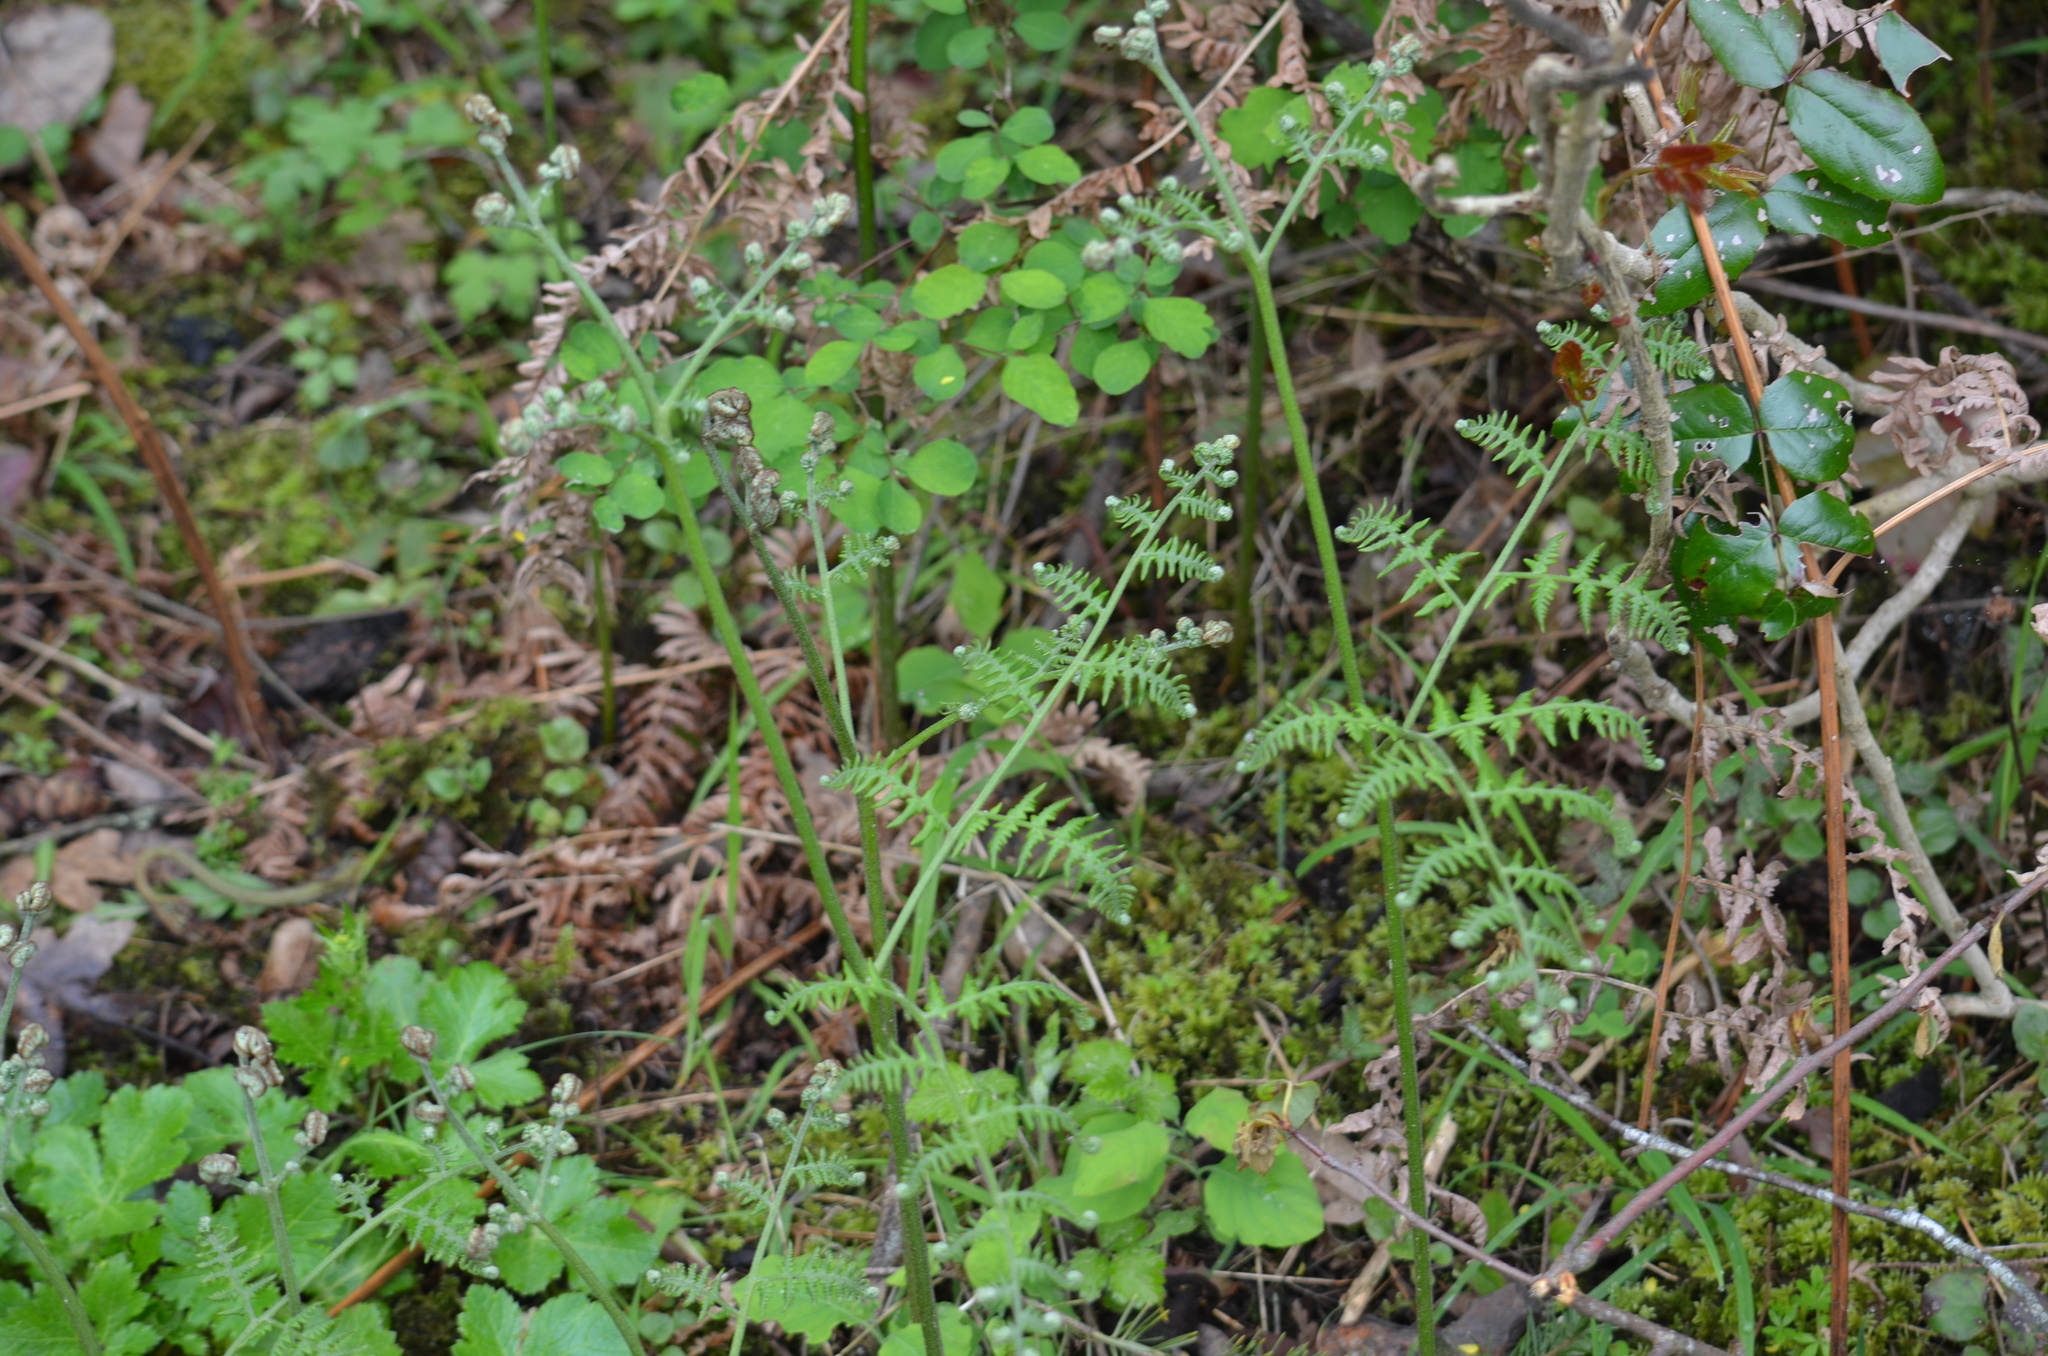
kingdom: Plantae
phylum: Tracheophyta
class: Polypodiopsida
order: Polypodiales
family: Dennstaedtiaceae
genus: Pteridium
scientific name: Pteridium aquilinum
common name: Bracken
